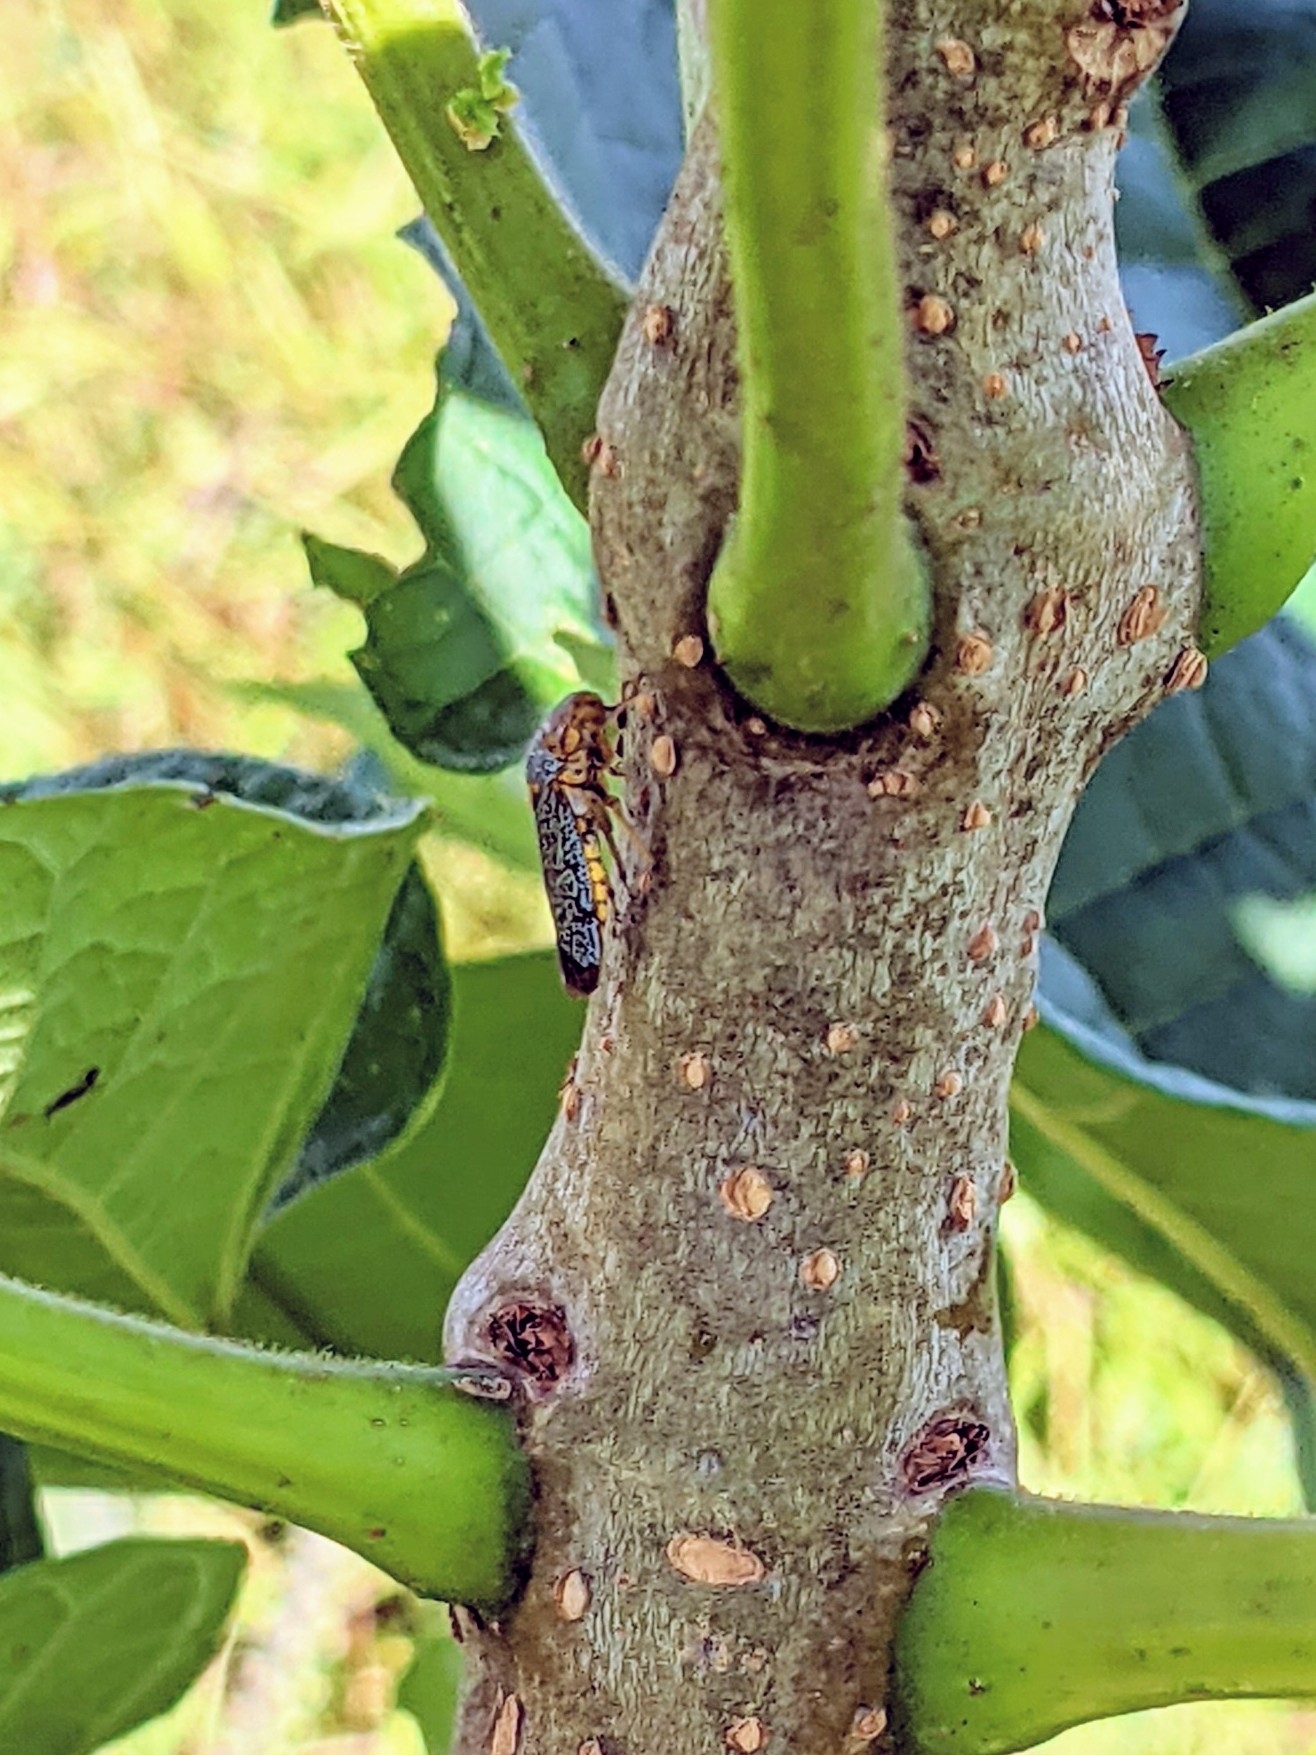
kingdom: Animalia
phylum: Arthropoda
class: Insecta
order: Hemiptera
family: Cicadellidae
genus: Oncometopia
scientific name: Oncometopia orbona
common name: Broad-headed sharpshooter
